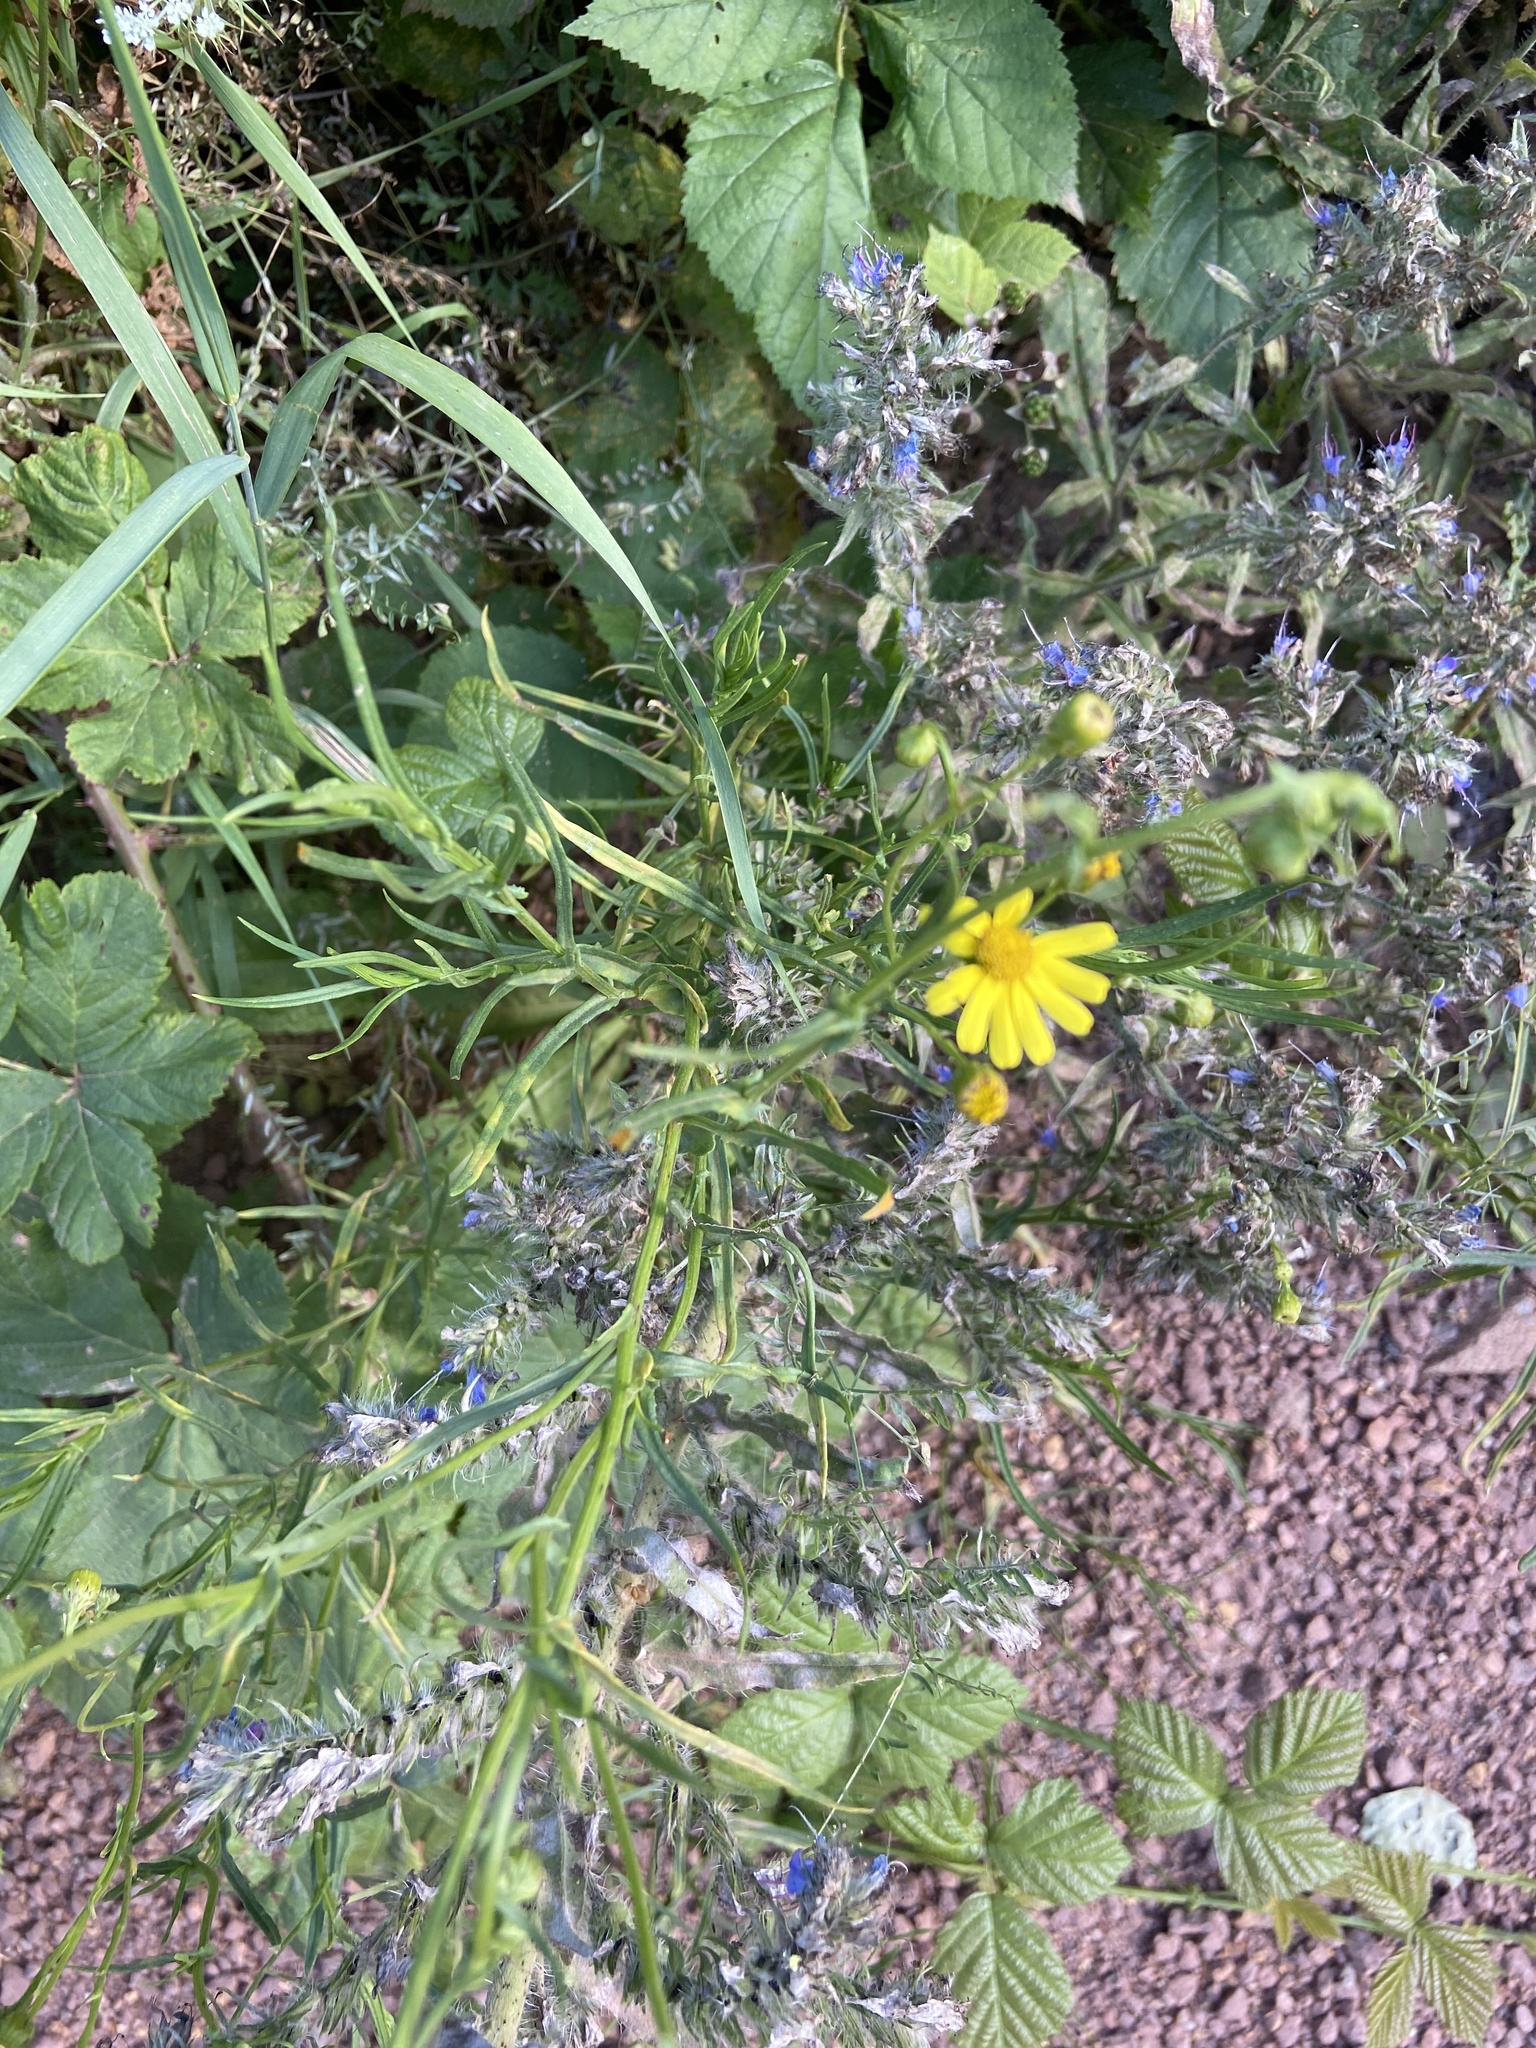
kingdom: Plantae
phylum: Tracheophyta
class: Magnoliopsida
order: Asterales
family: Asteraceae
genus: Senecio
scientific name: Senecio inaequidens
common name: Narrow-leaved ragwort
